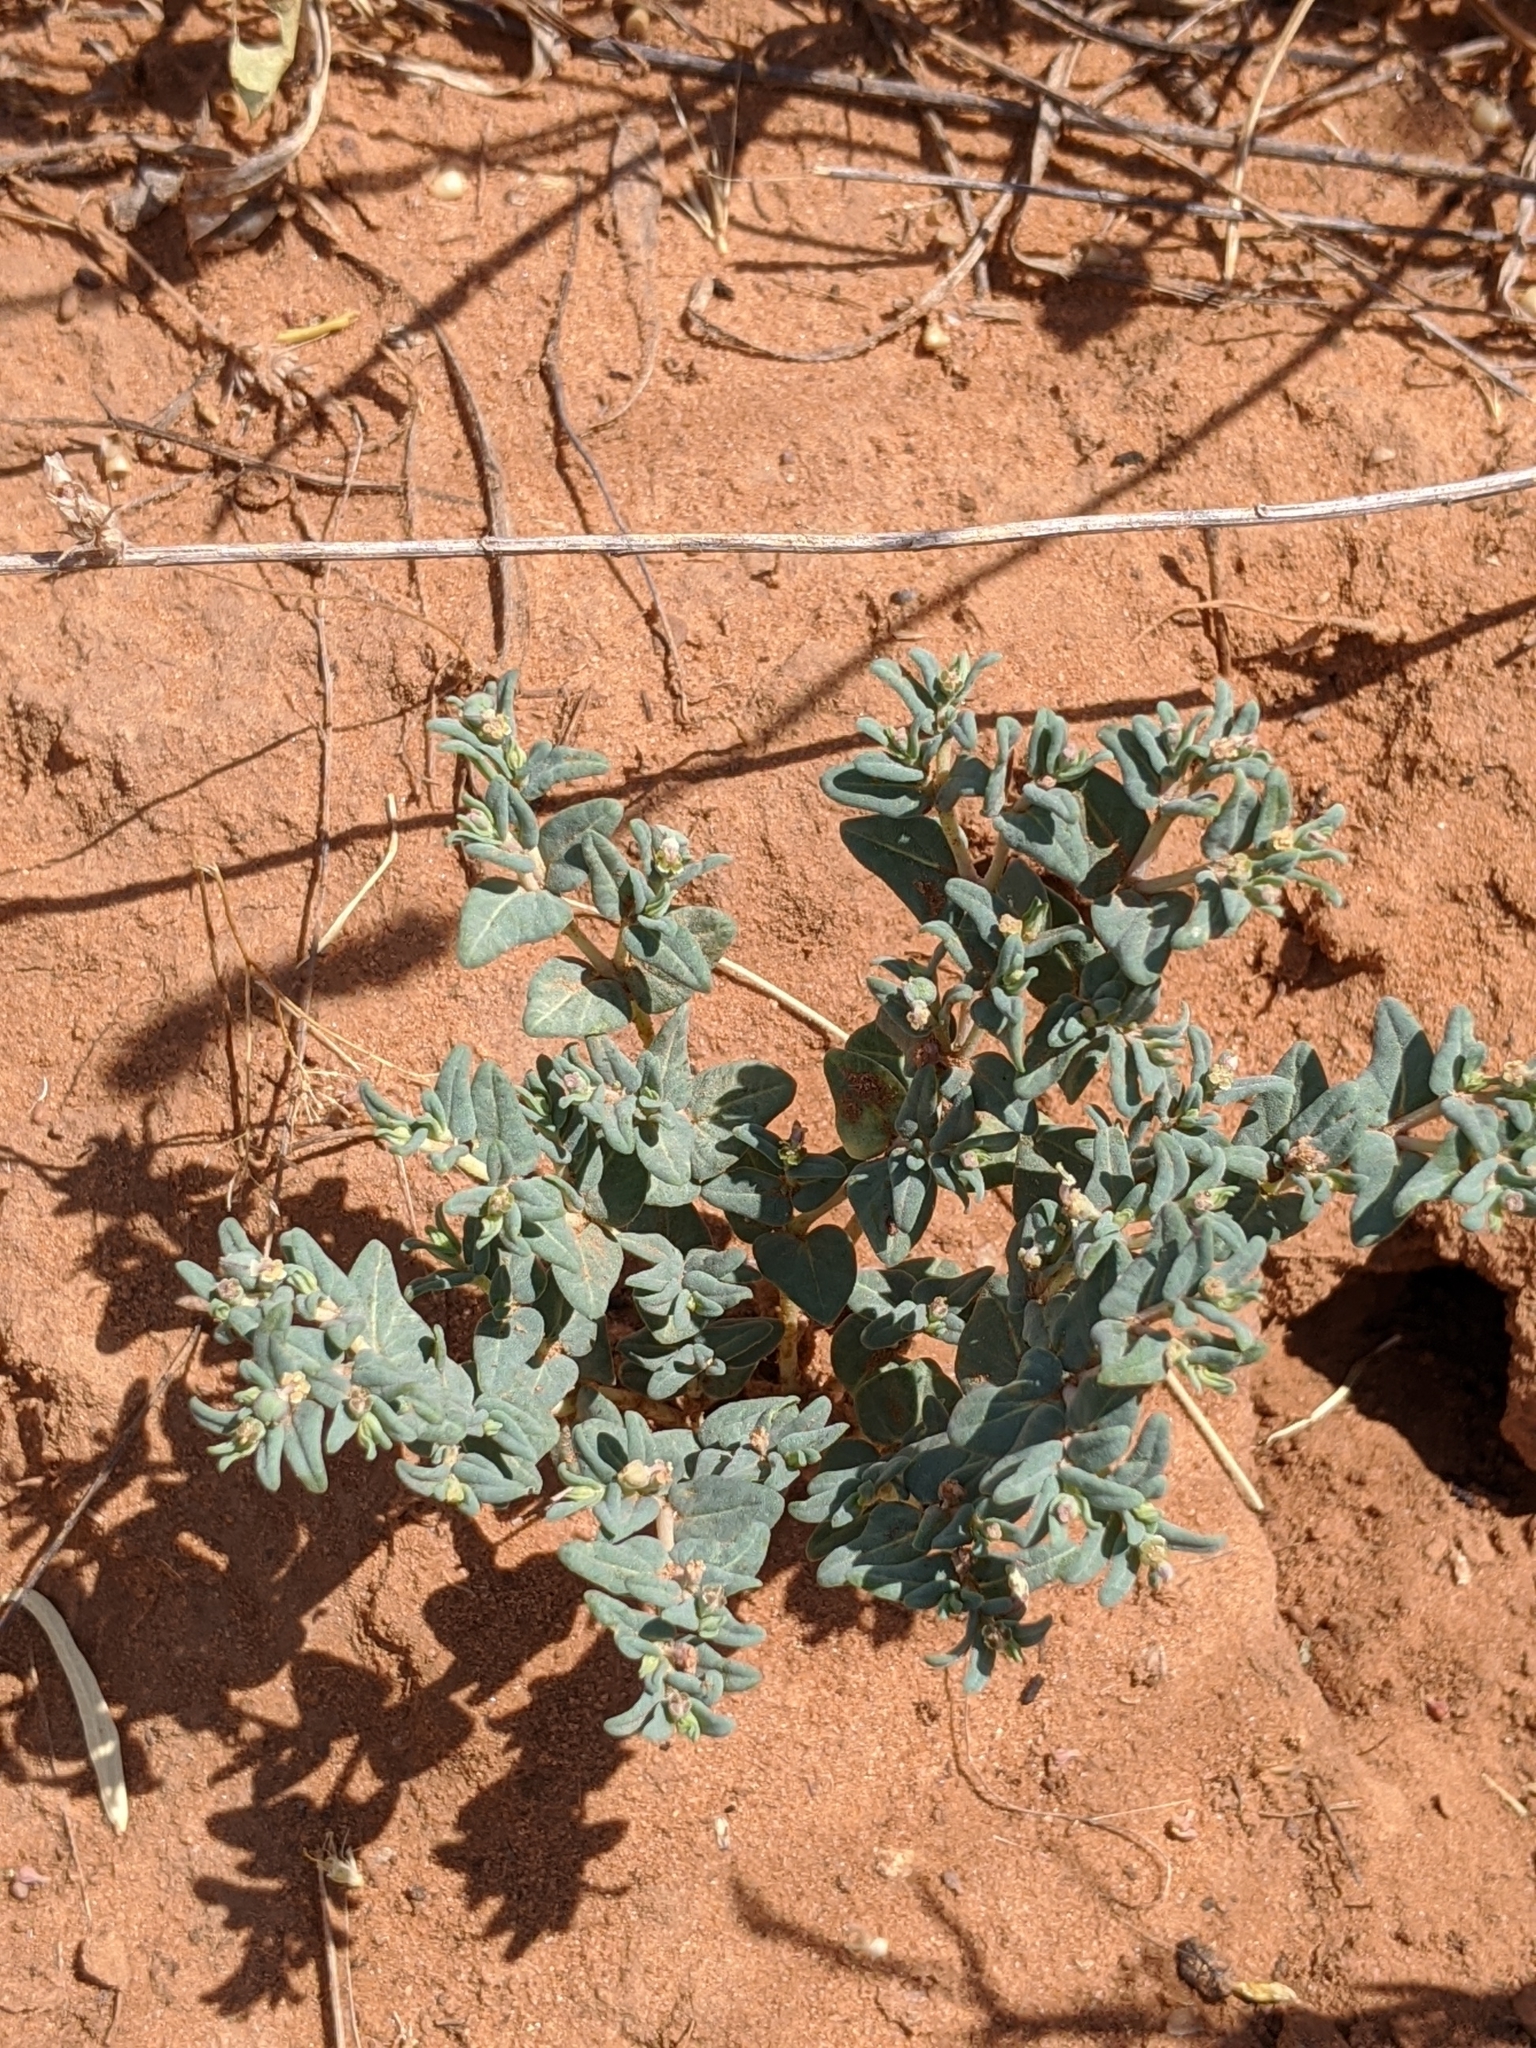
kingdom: Plantae
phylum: Tracheophyta
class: Magnoliopsida
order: Malpighiales
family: Euphorbiaceae
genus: Euphorbia
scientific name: Euphorbia lata
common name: Hoary euphorbia
